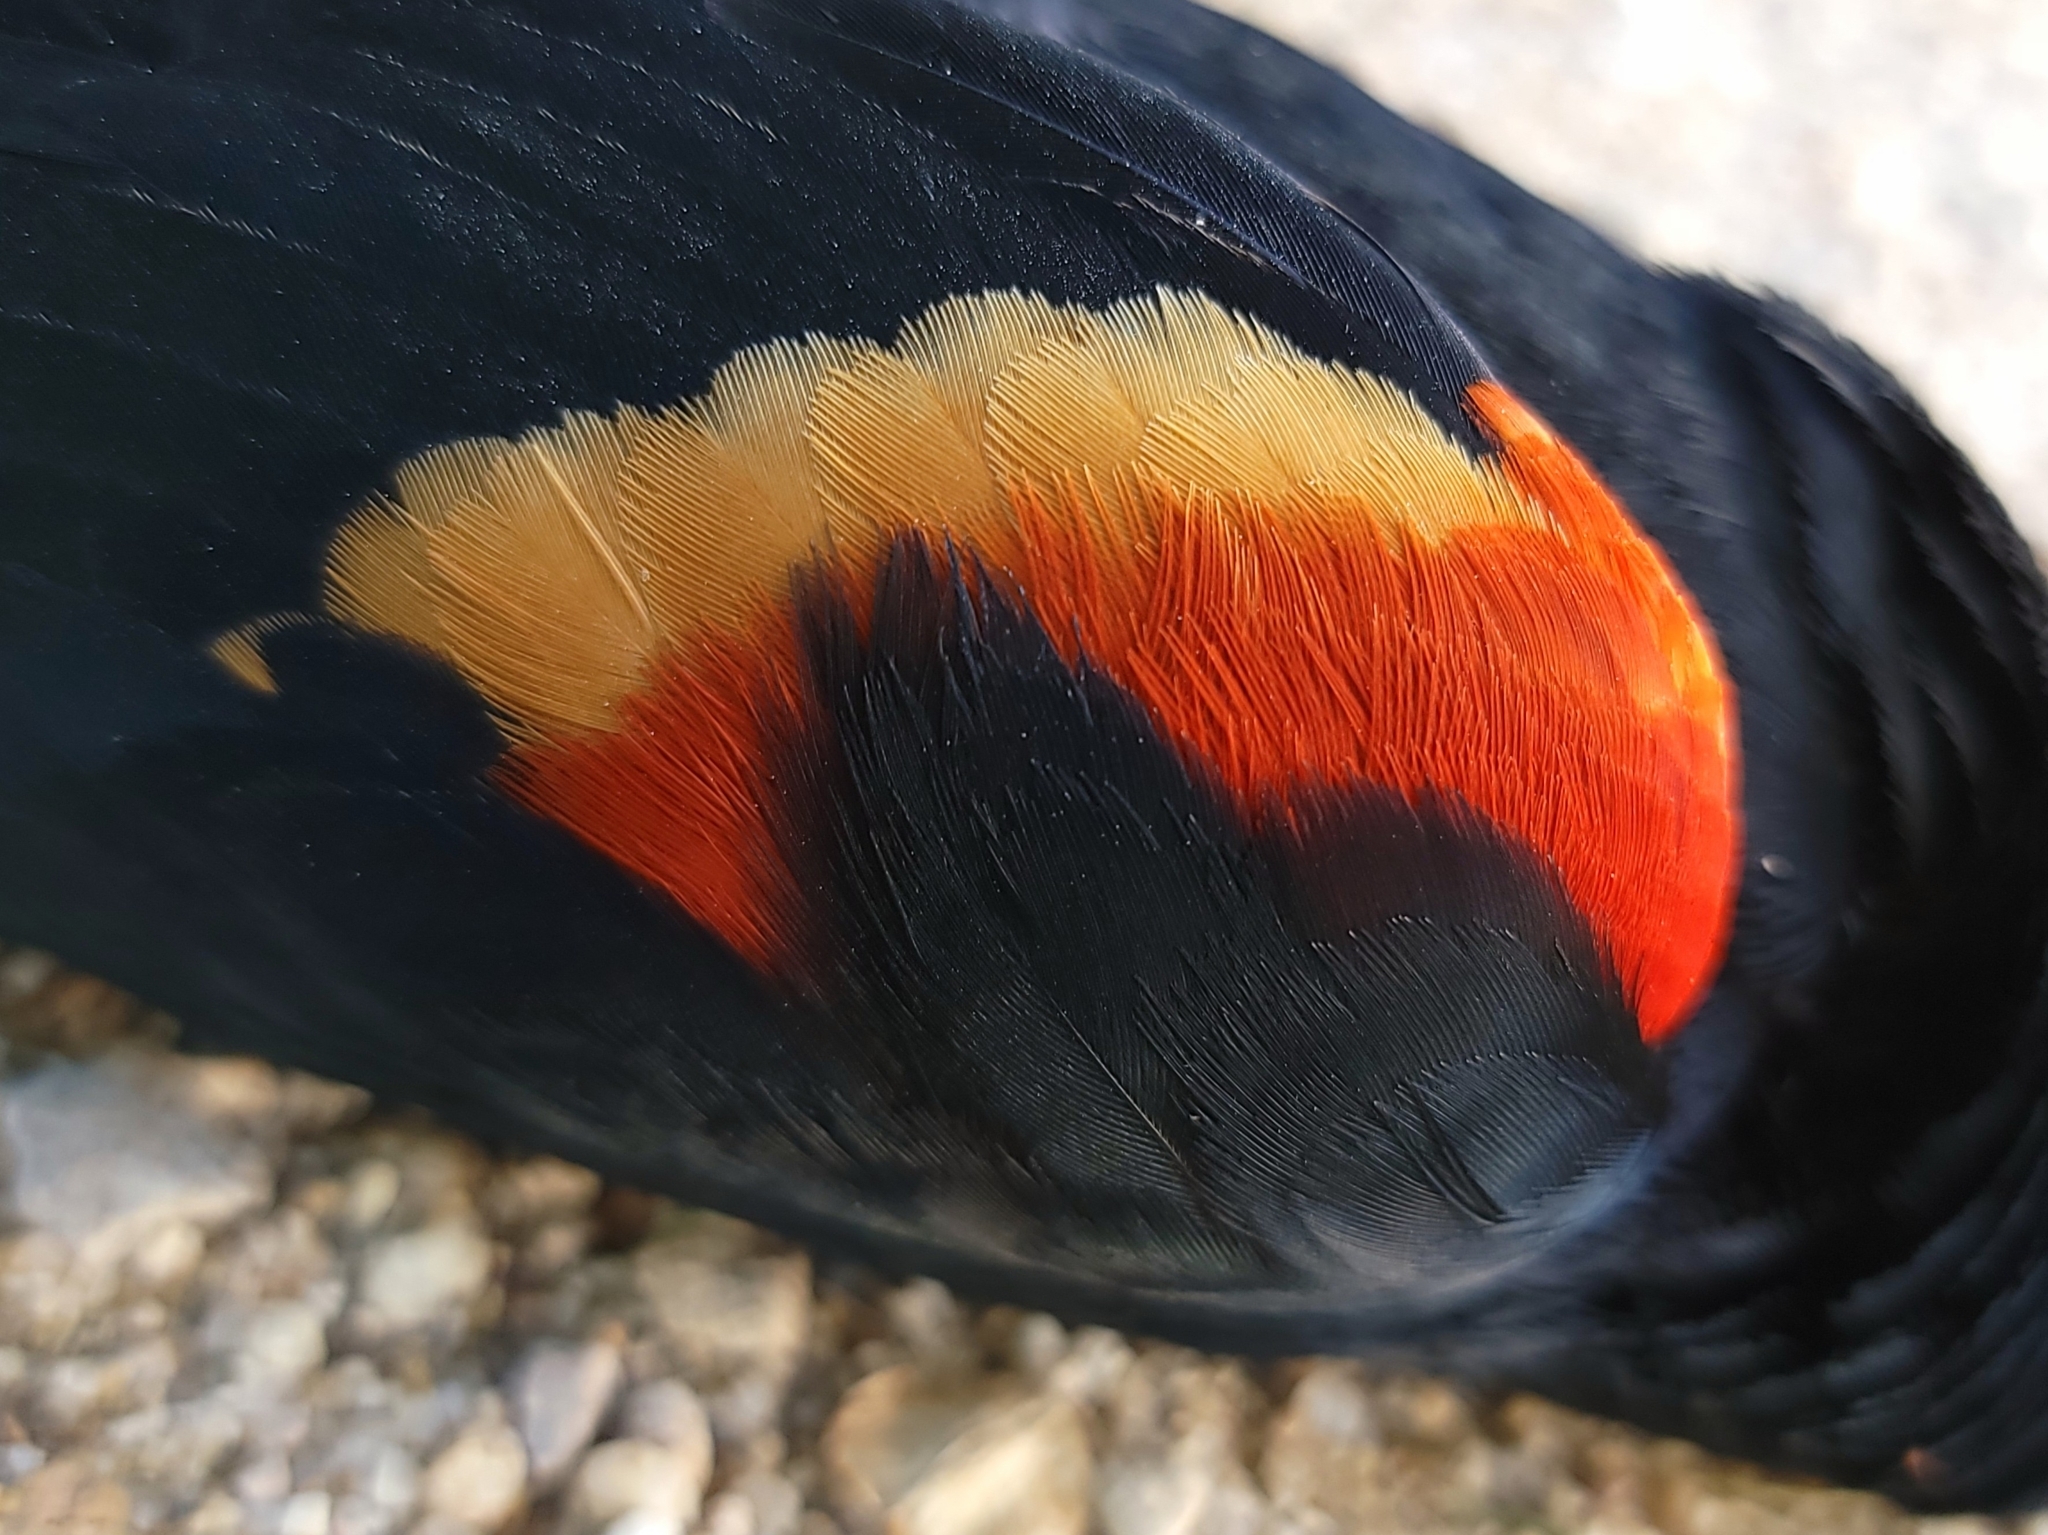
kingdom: Animalia
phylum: Chordata
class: Aves
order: Passeriformes
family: Icteridae
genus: Agelaius
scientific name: Agelaius phoeniceus
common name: Red-winged blackbird
